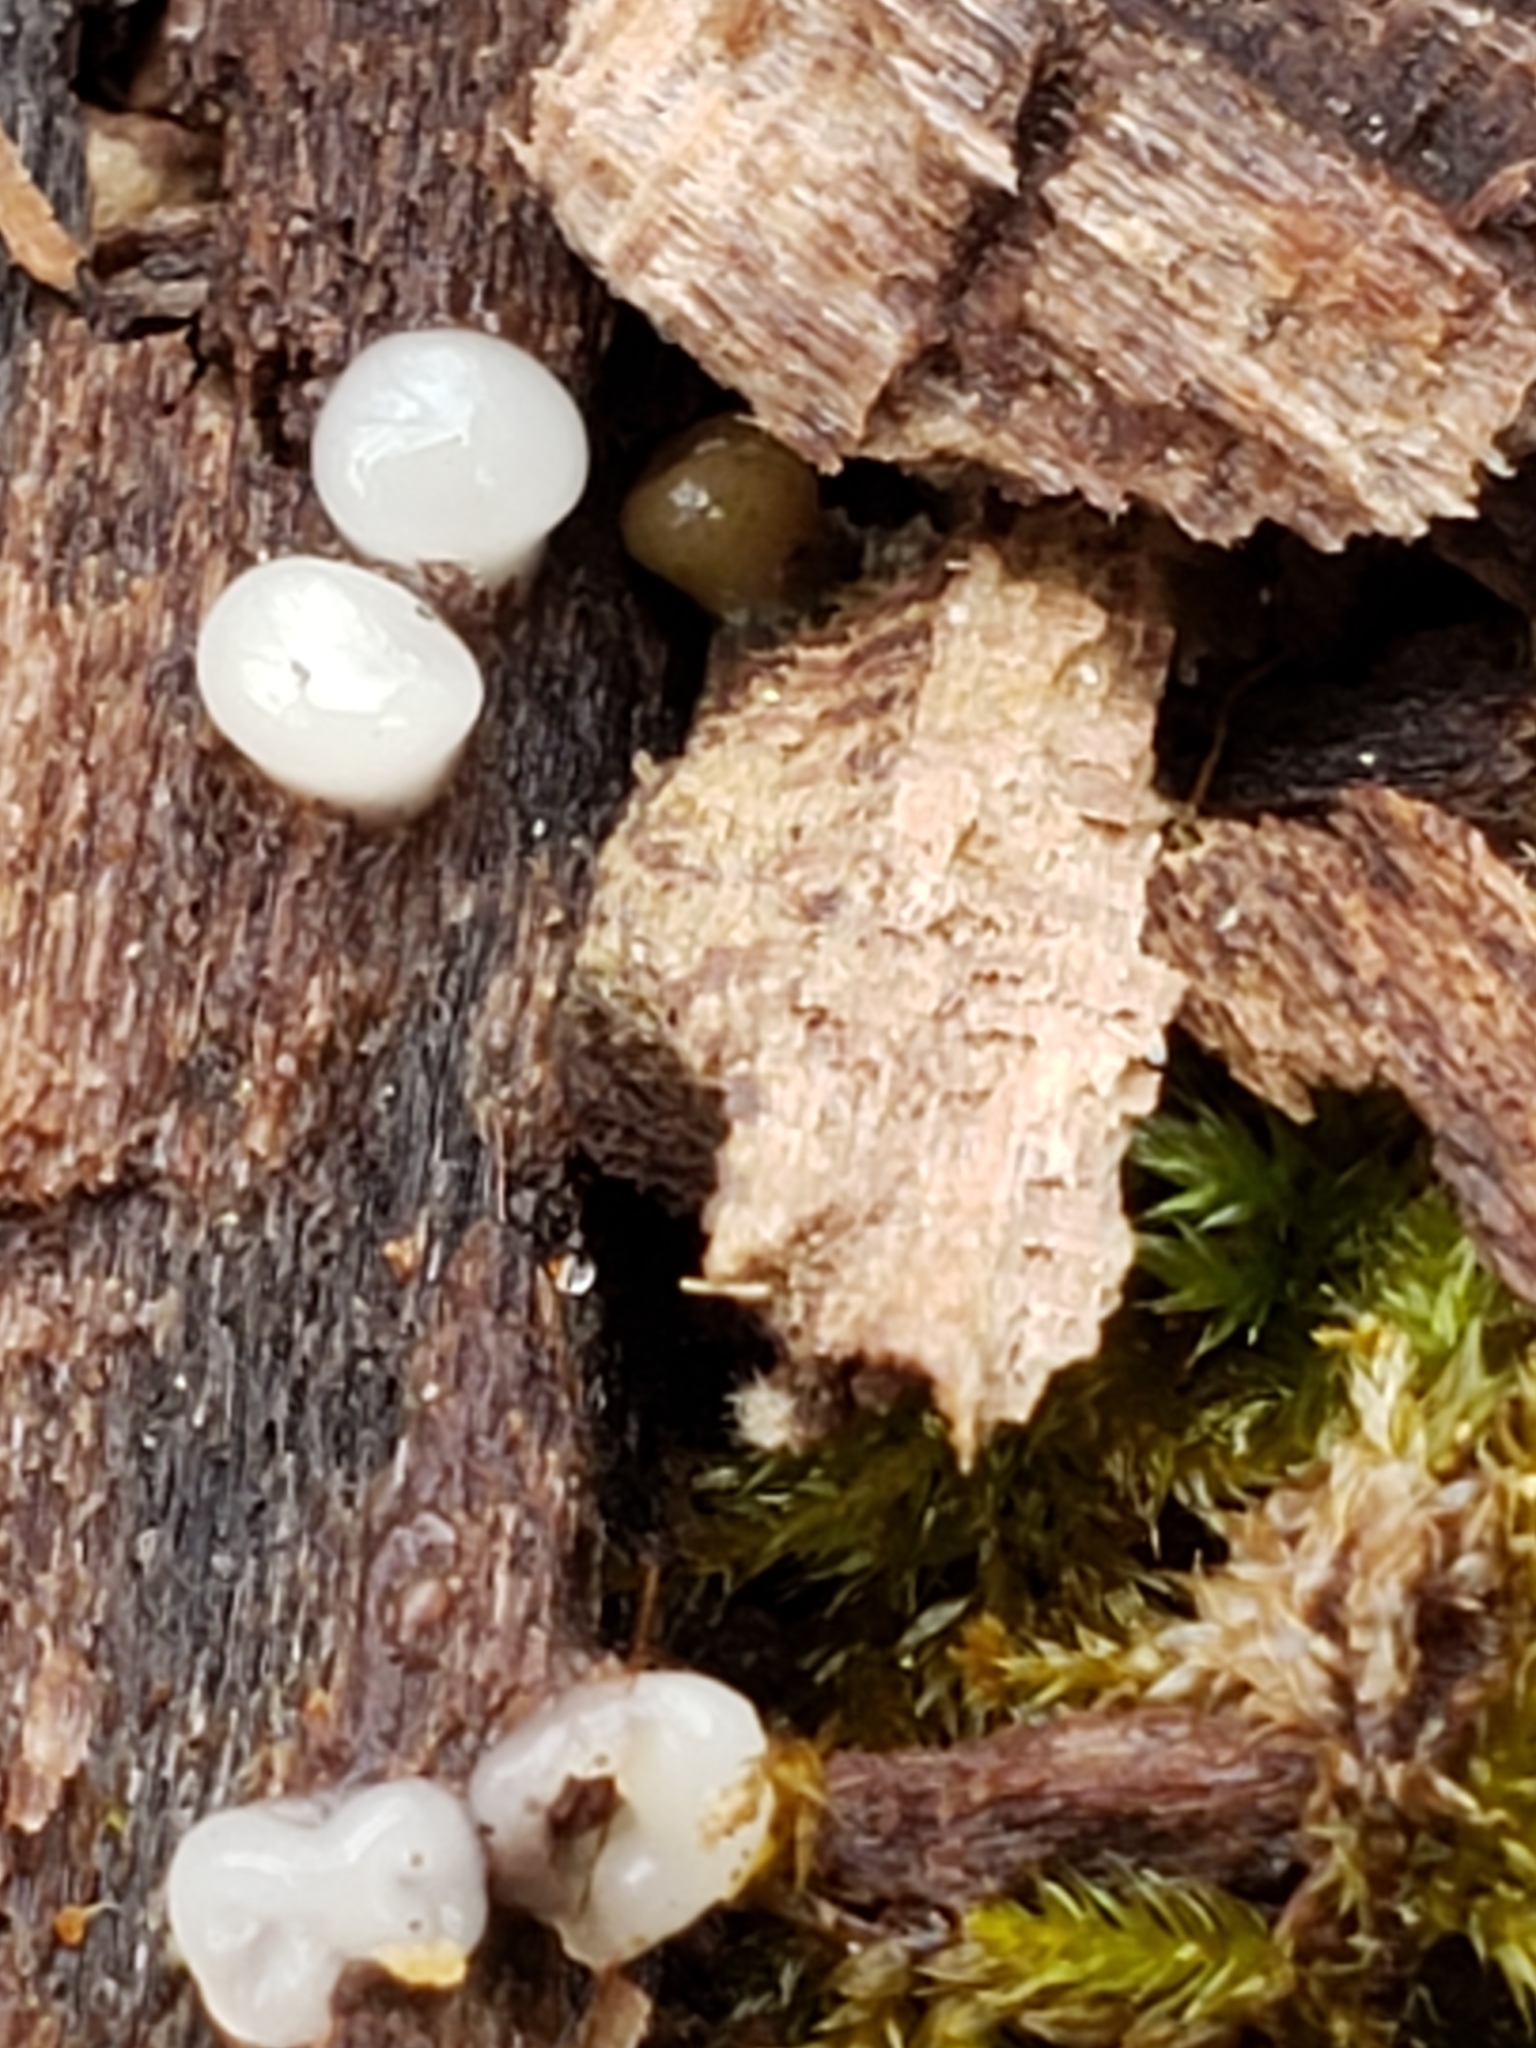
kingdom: Fungi
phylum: Basidiomycota
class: Atractiellomycetes
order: Atractiellales
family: Phleogenaceae
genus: Helicogloea
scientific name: Helicogloea compressa
